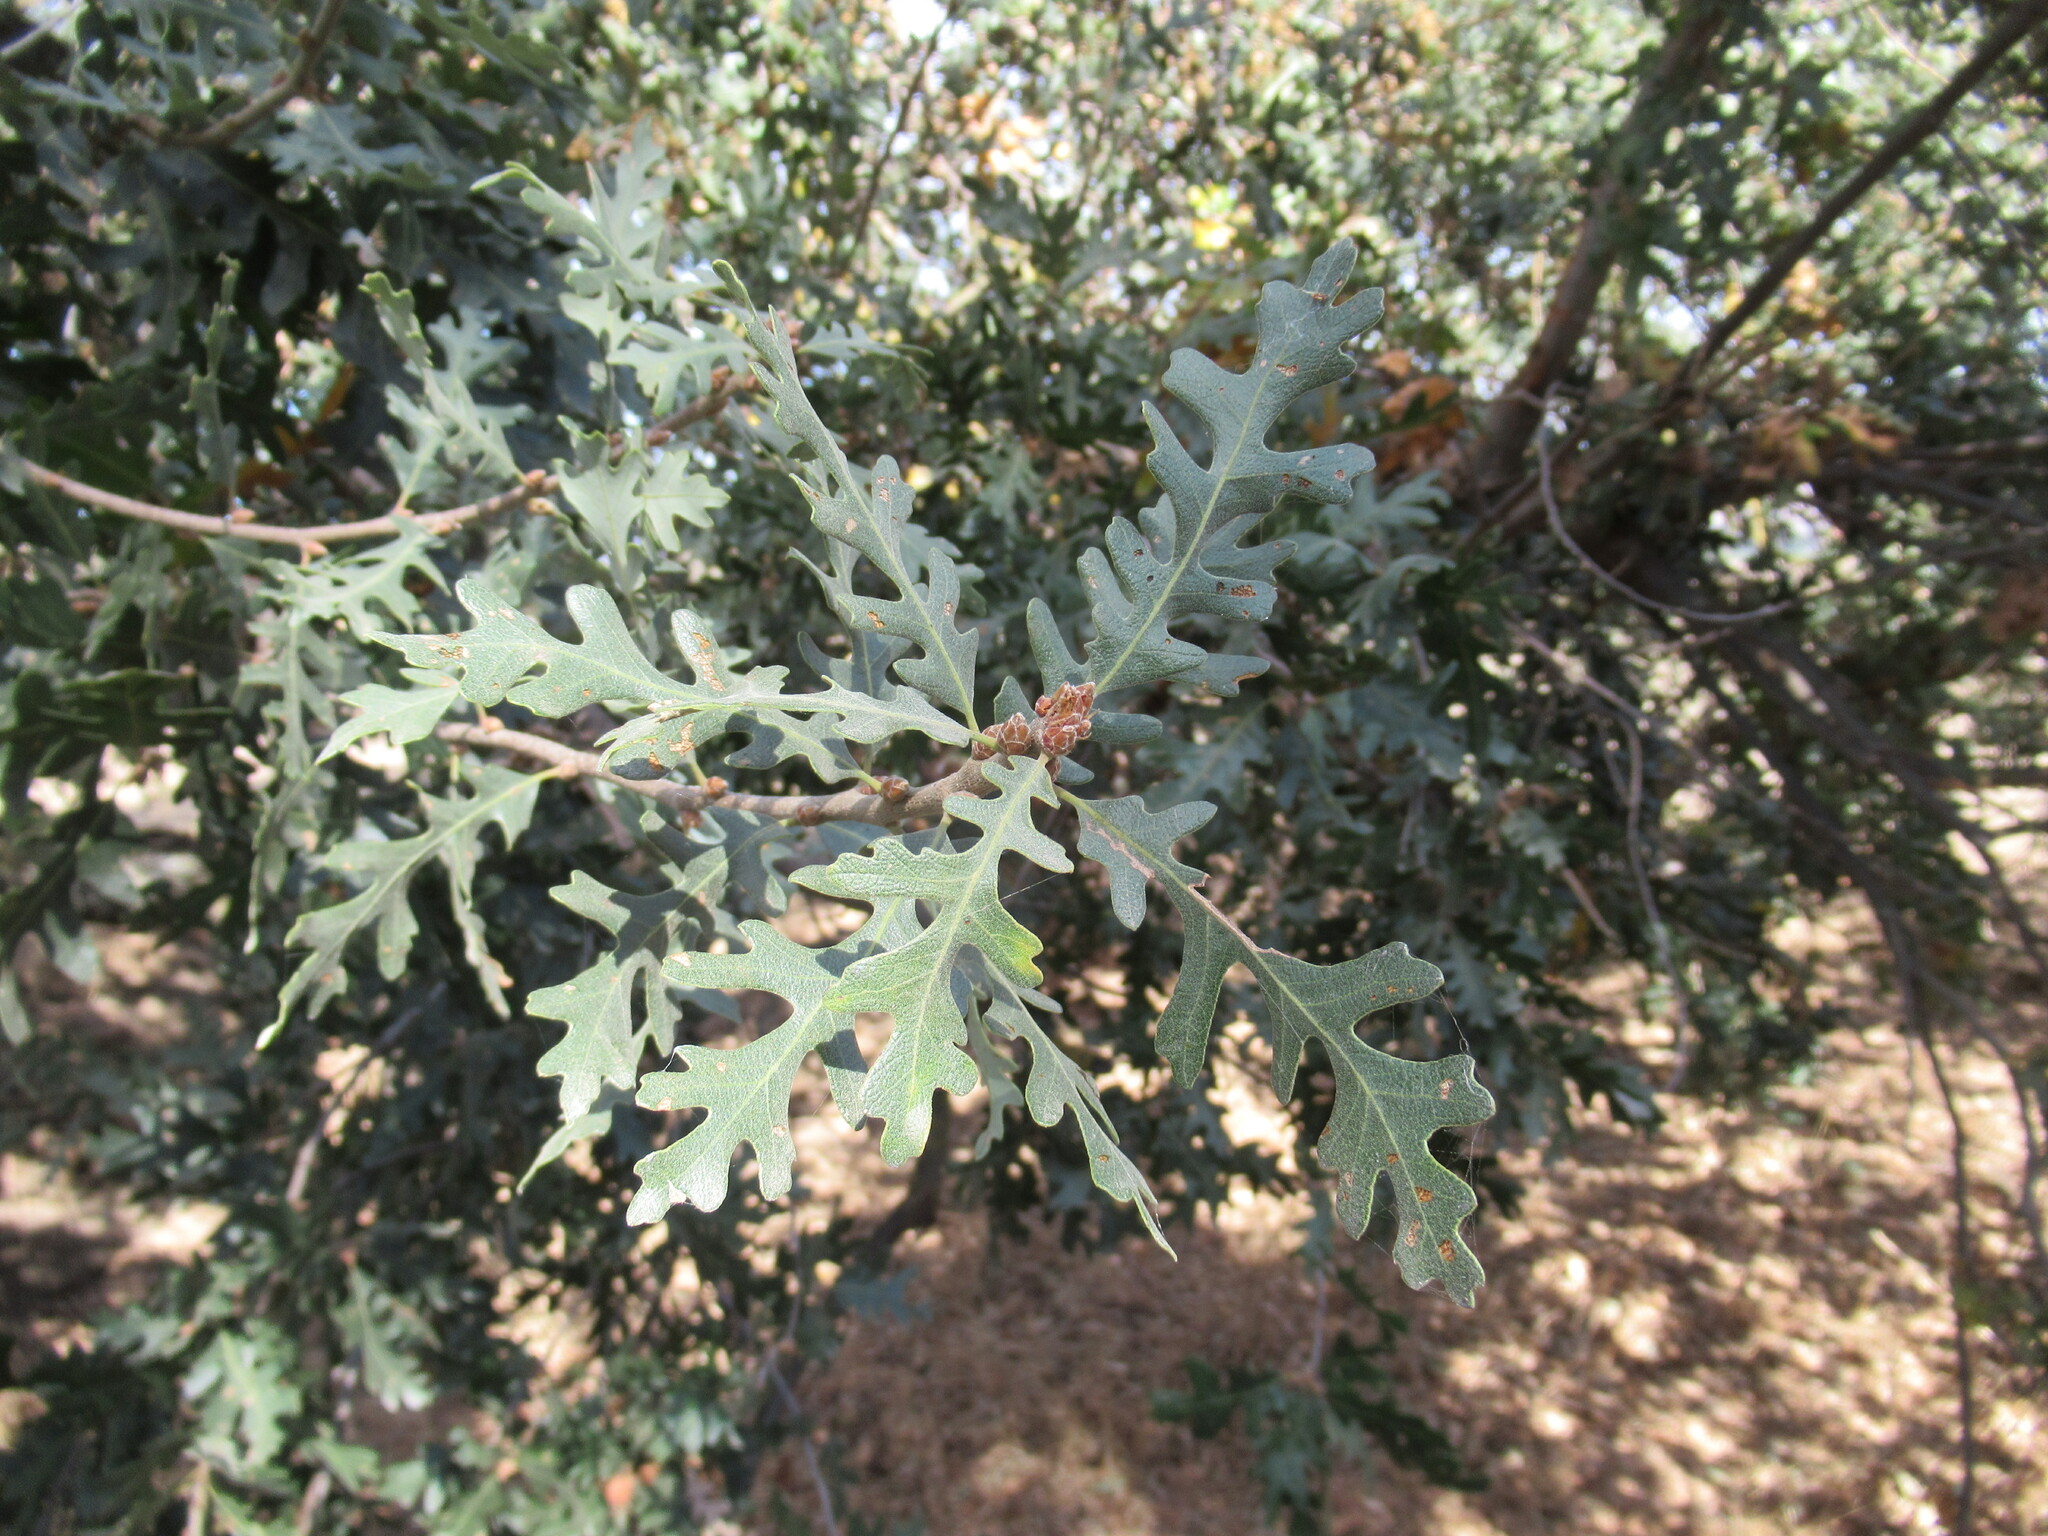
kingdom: Plantae
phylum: Tracheophyta
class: Magnoliopsida
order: Fagales
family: Fagaceae
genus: Quercus
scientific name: Quercus lobata
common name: Valley oak
